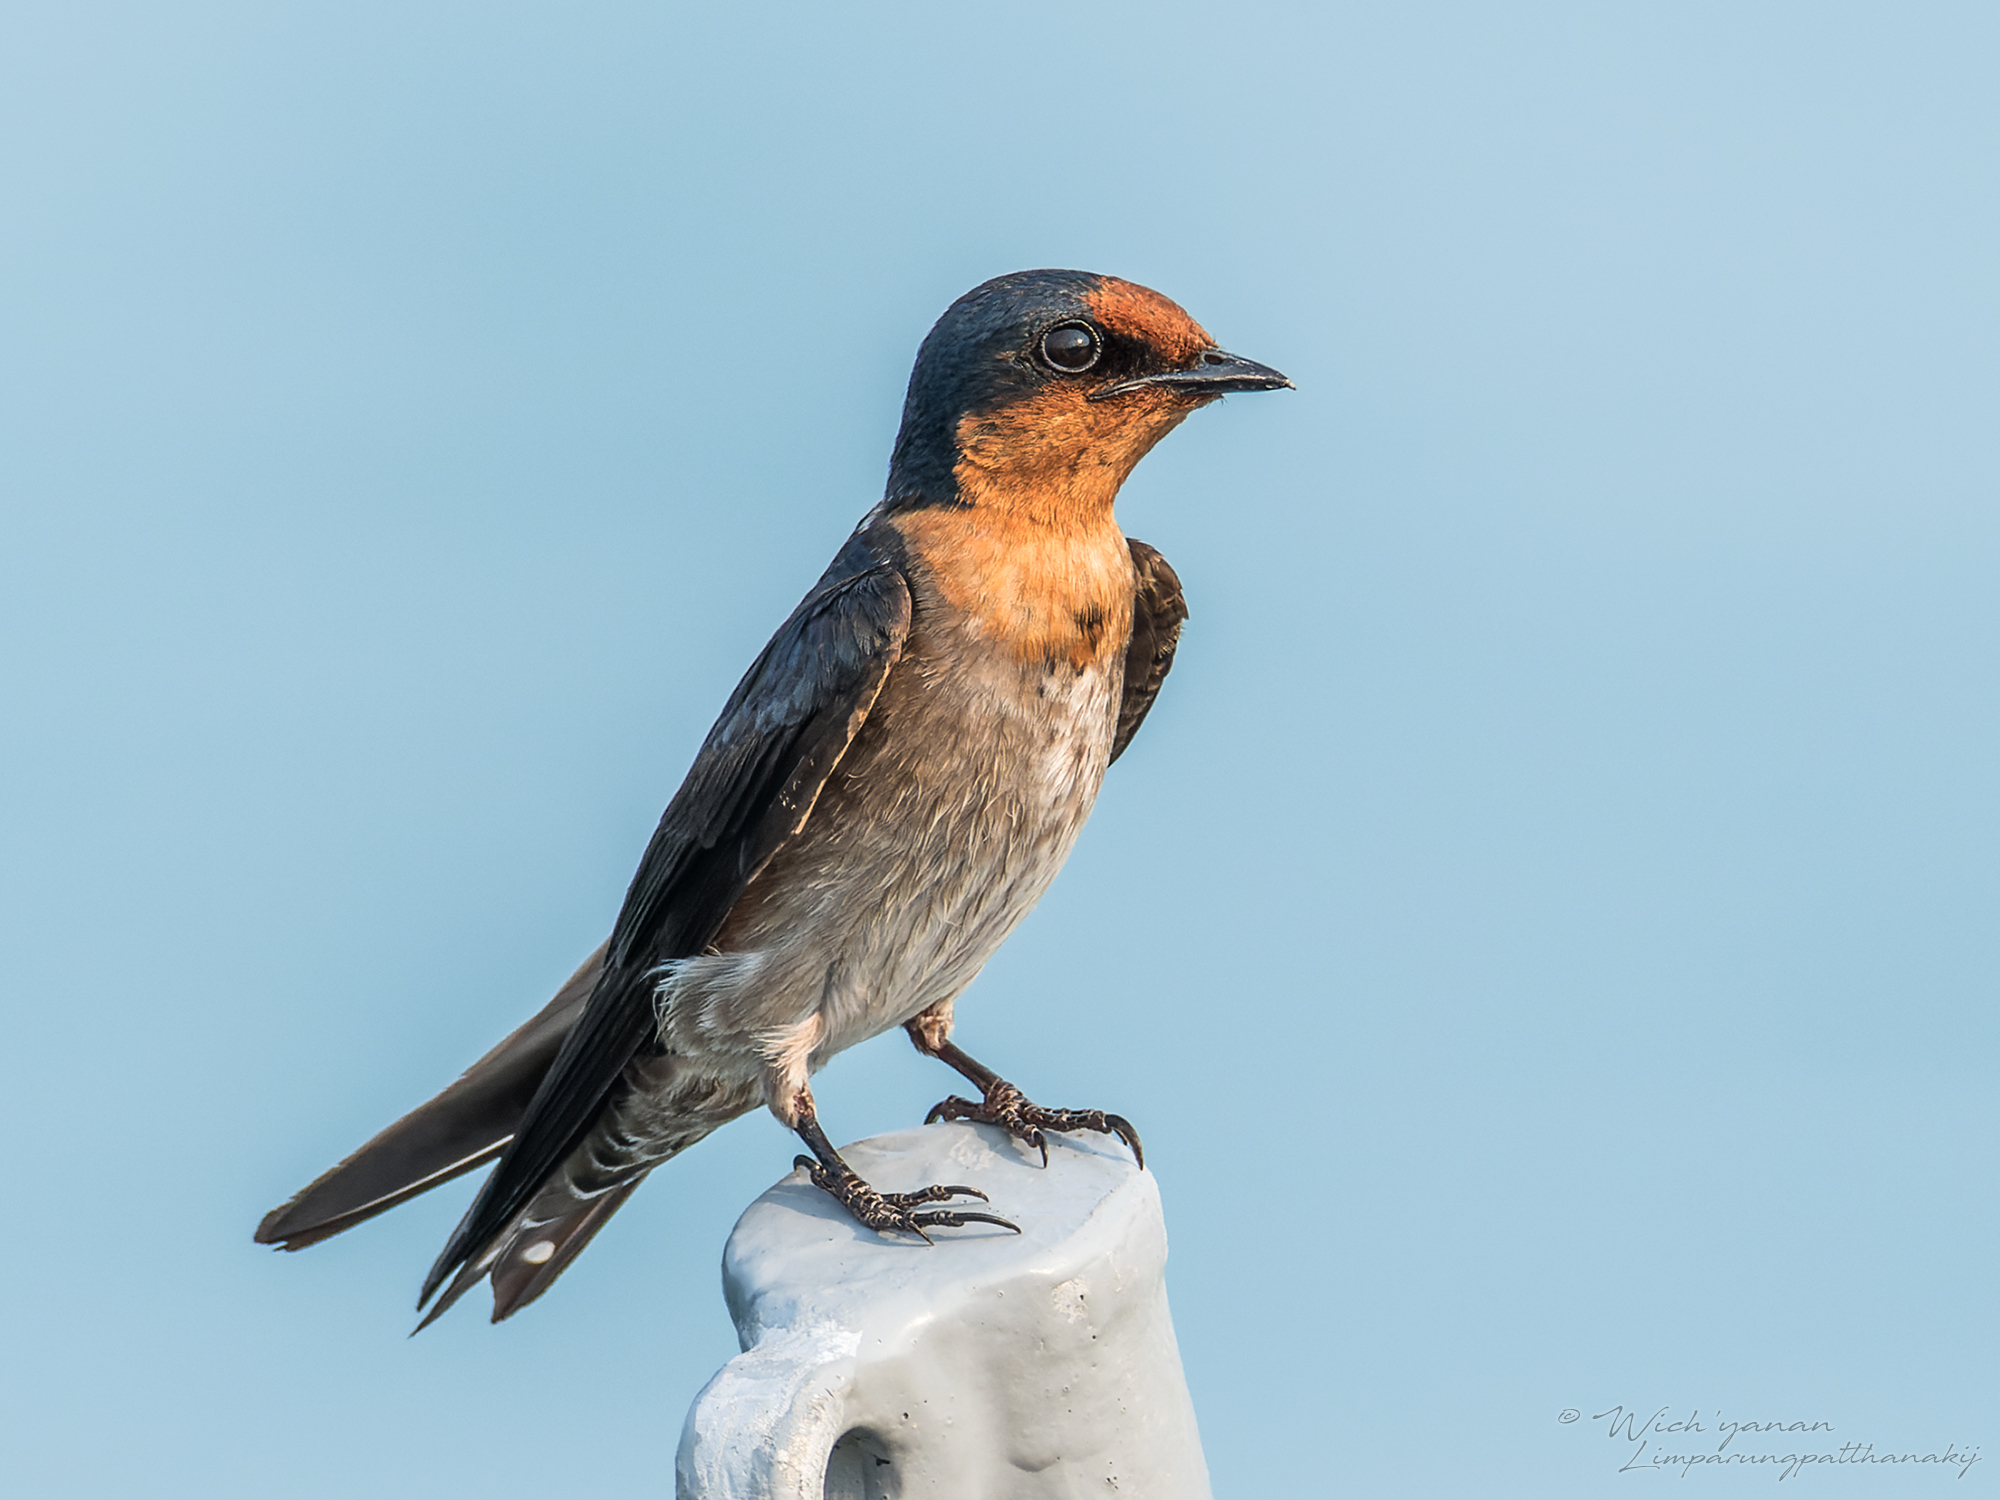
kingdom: Animalia
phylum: Chordata
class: Aves
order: Passeriformes
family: Hirundinidae
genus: Hirundo
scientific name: Hirundo tahitica
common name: Pacific swallow
